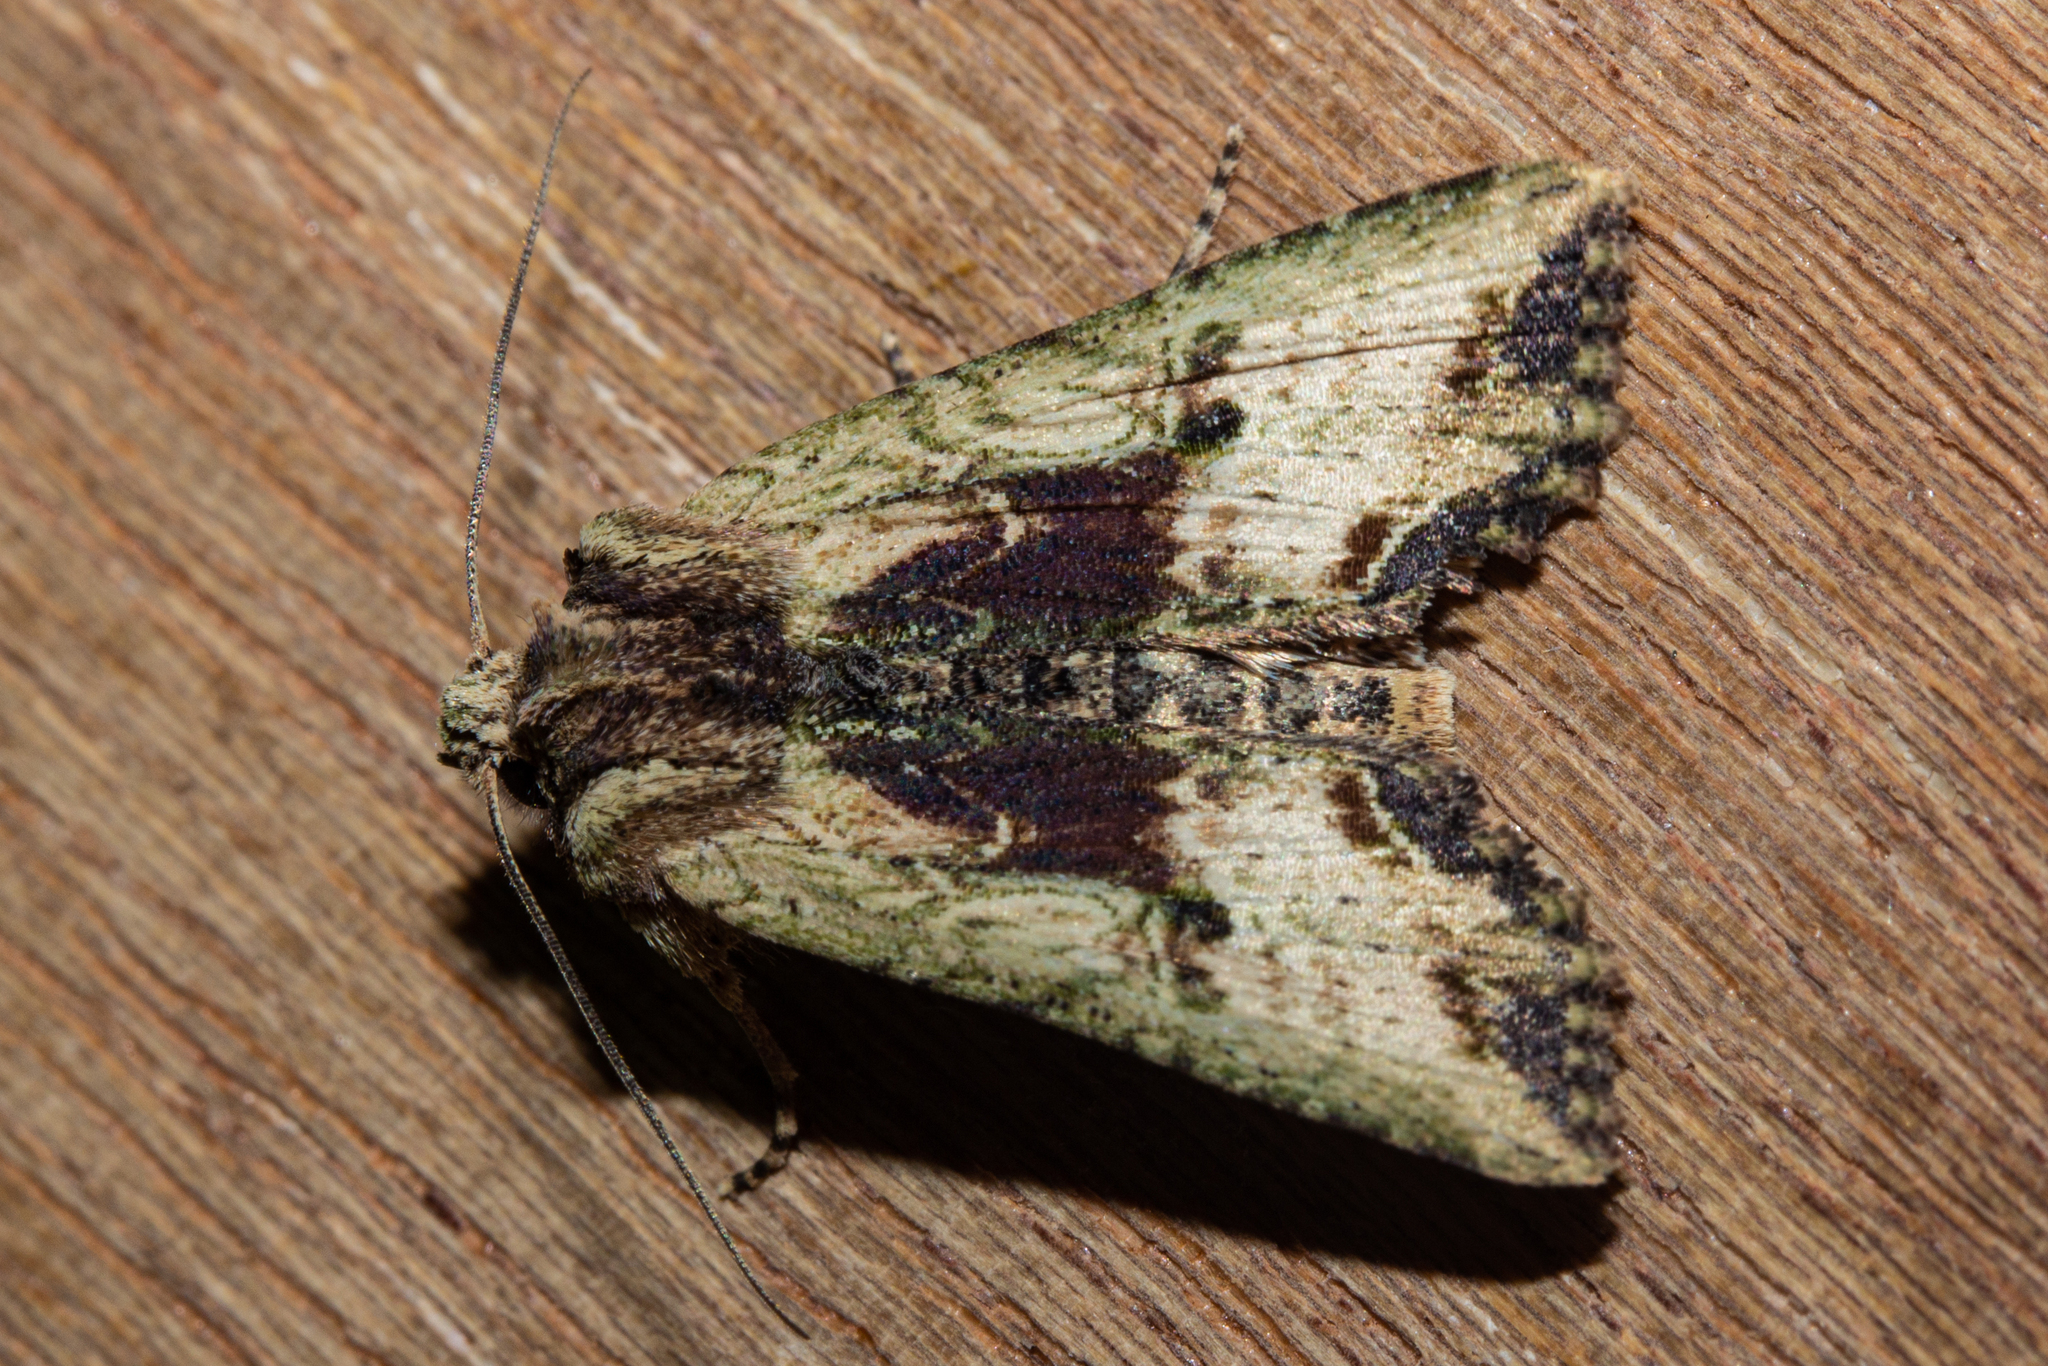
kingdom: Animalia
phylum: Arthropoda
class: Insecta
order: Lepidoptera
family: Noctuidae
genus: Meterana
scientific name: Meterana coeleno
